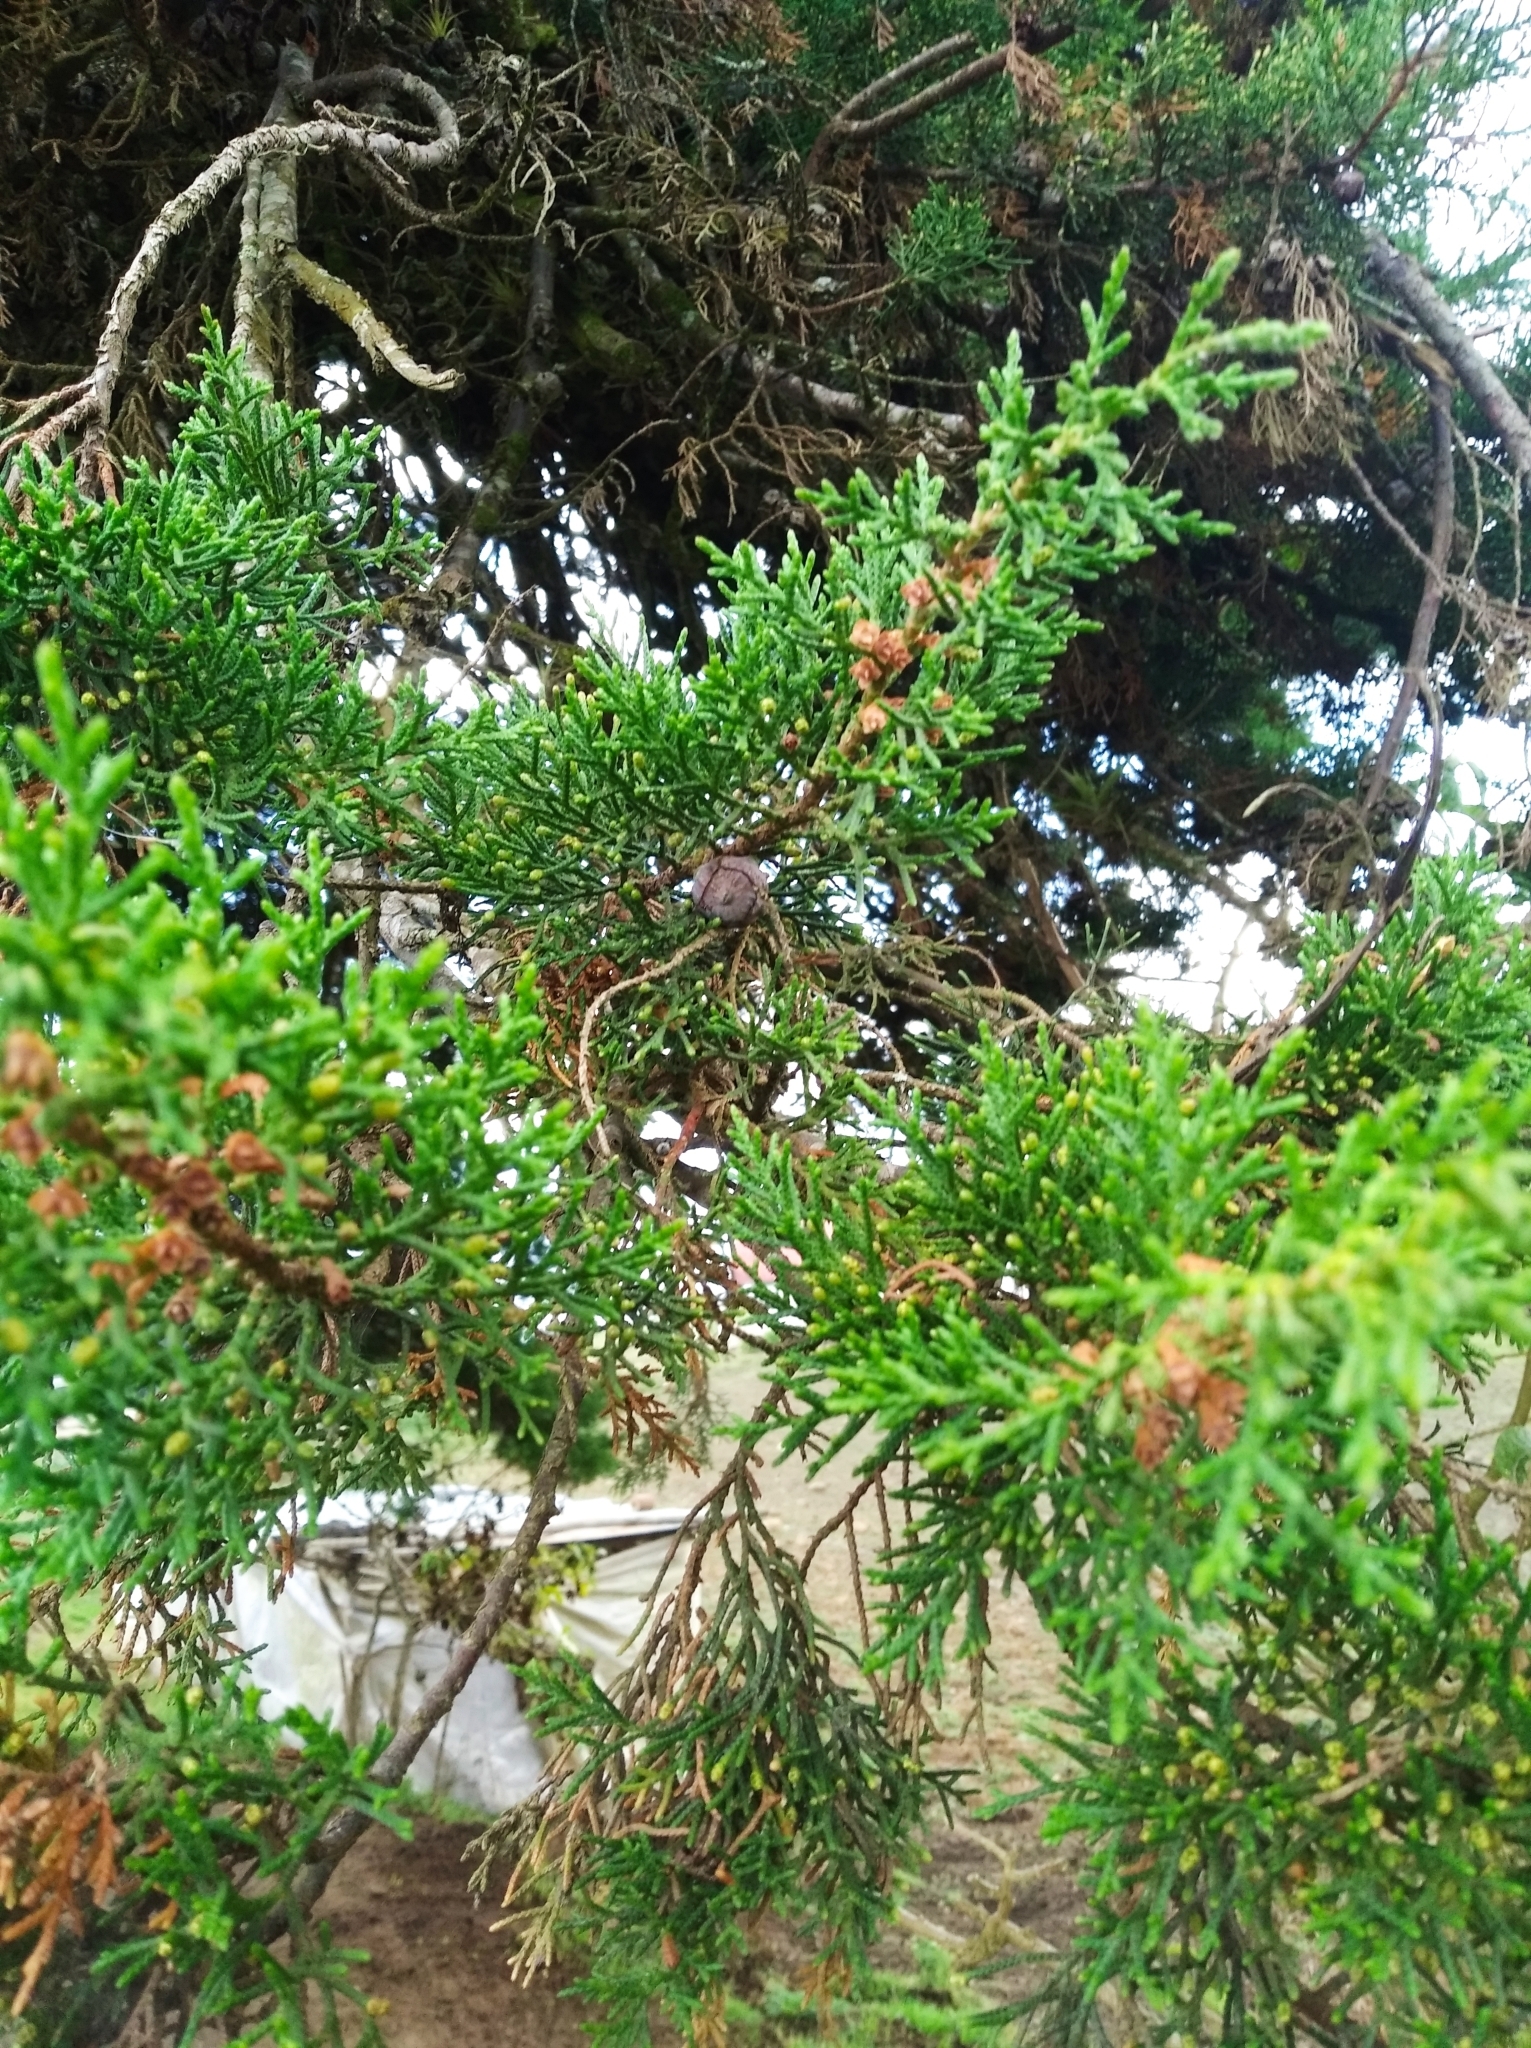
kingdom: Plantae
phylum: Tracheophyta
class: Pinopsida
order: Pinales
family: Cupressaceae
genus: Cupressus
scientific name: Cupressus lusitanica
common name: Mexican cypress
